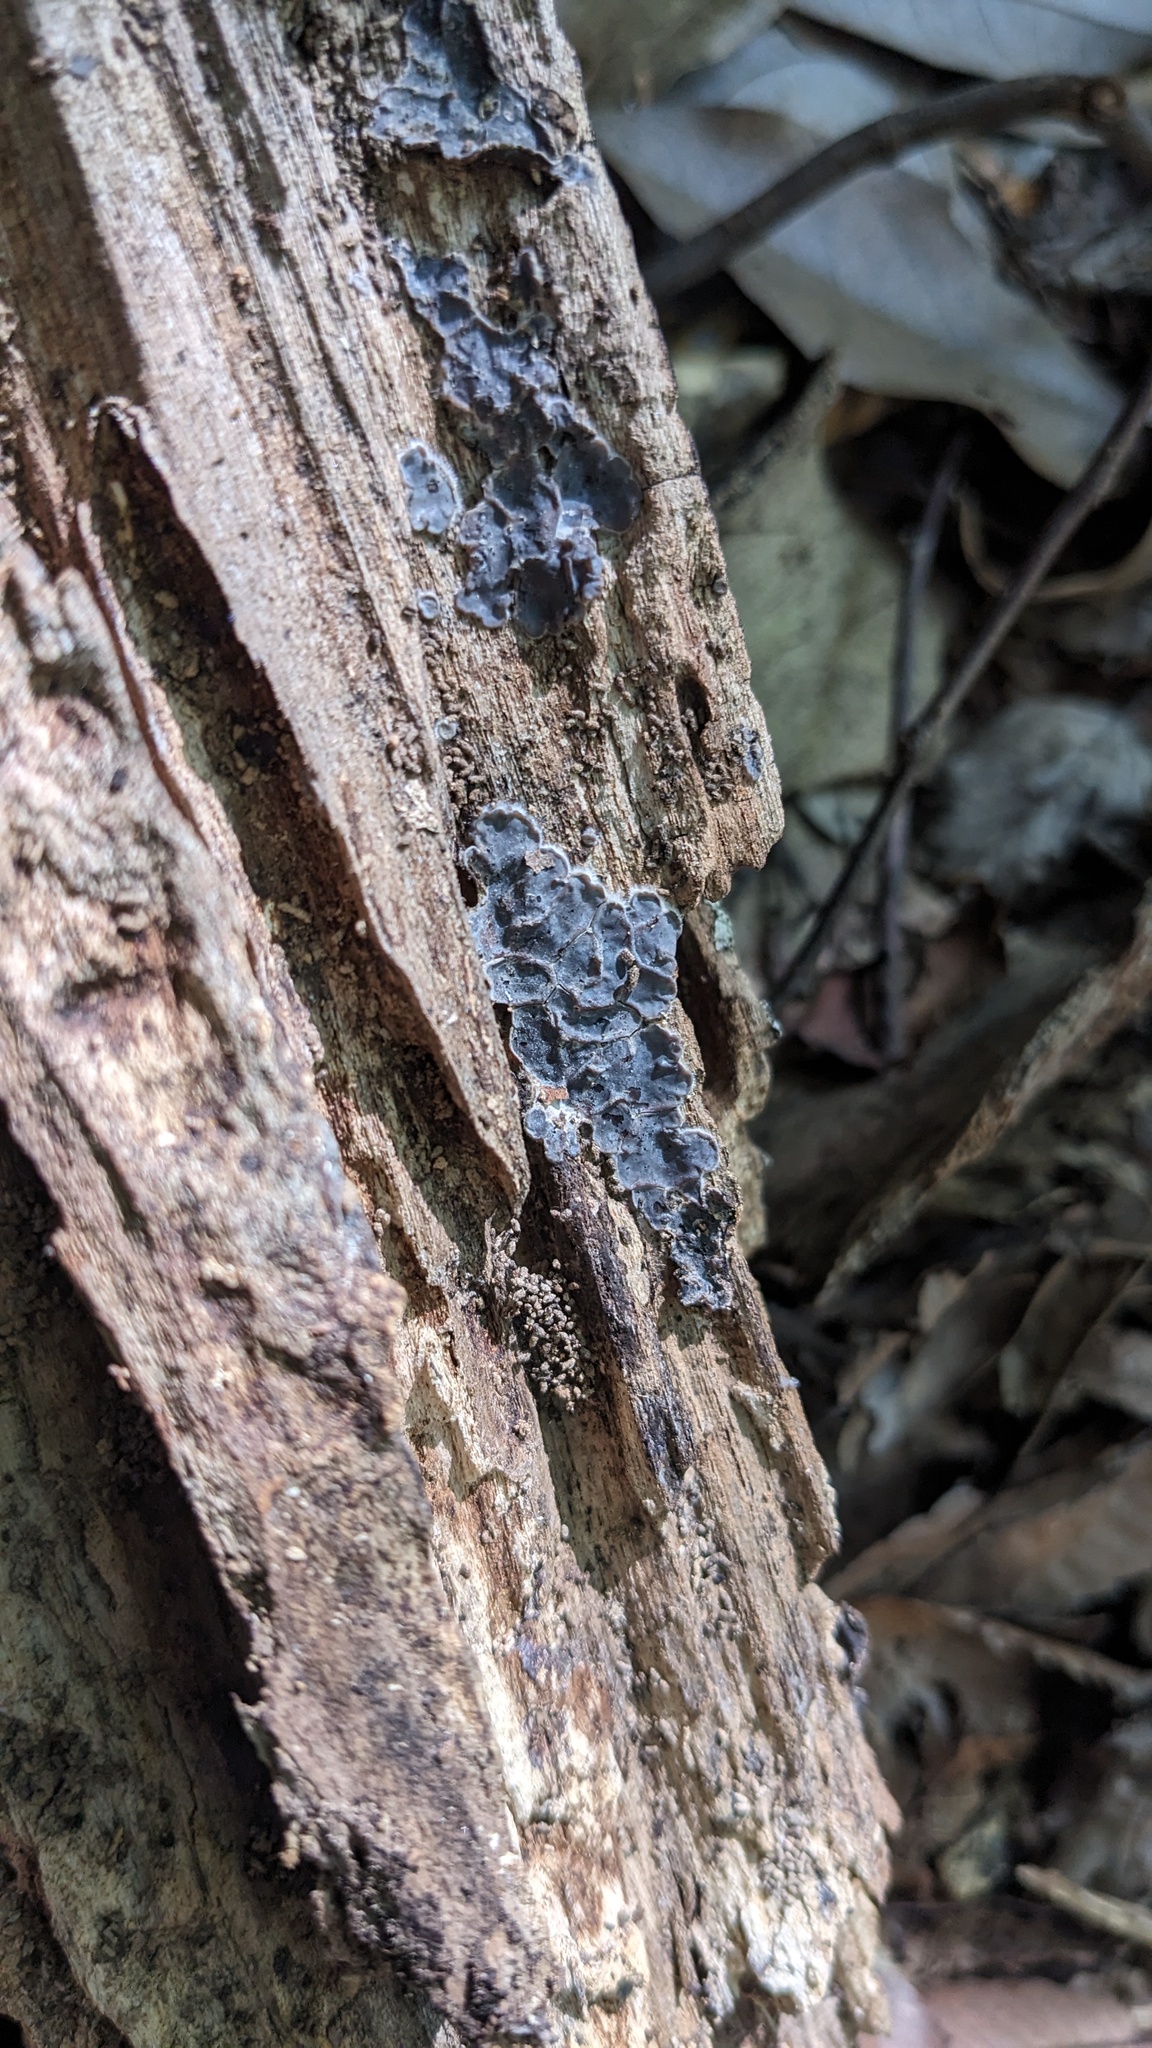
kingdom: Fungi
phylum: Basidiomycota
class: Agaricomycetes
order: Auriculariales
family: Auriculariaceae
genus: Auricularia
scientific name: Auricularia mesenterica
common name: Tripe fungus
